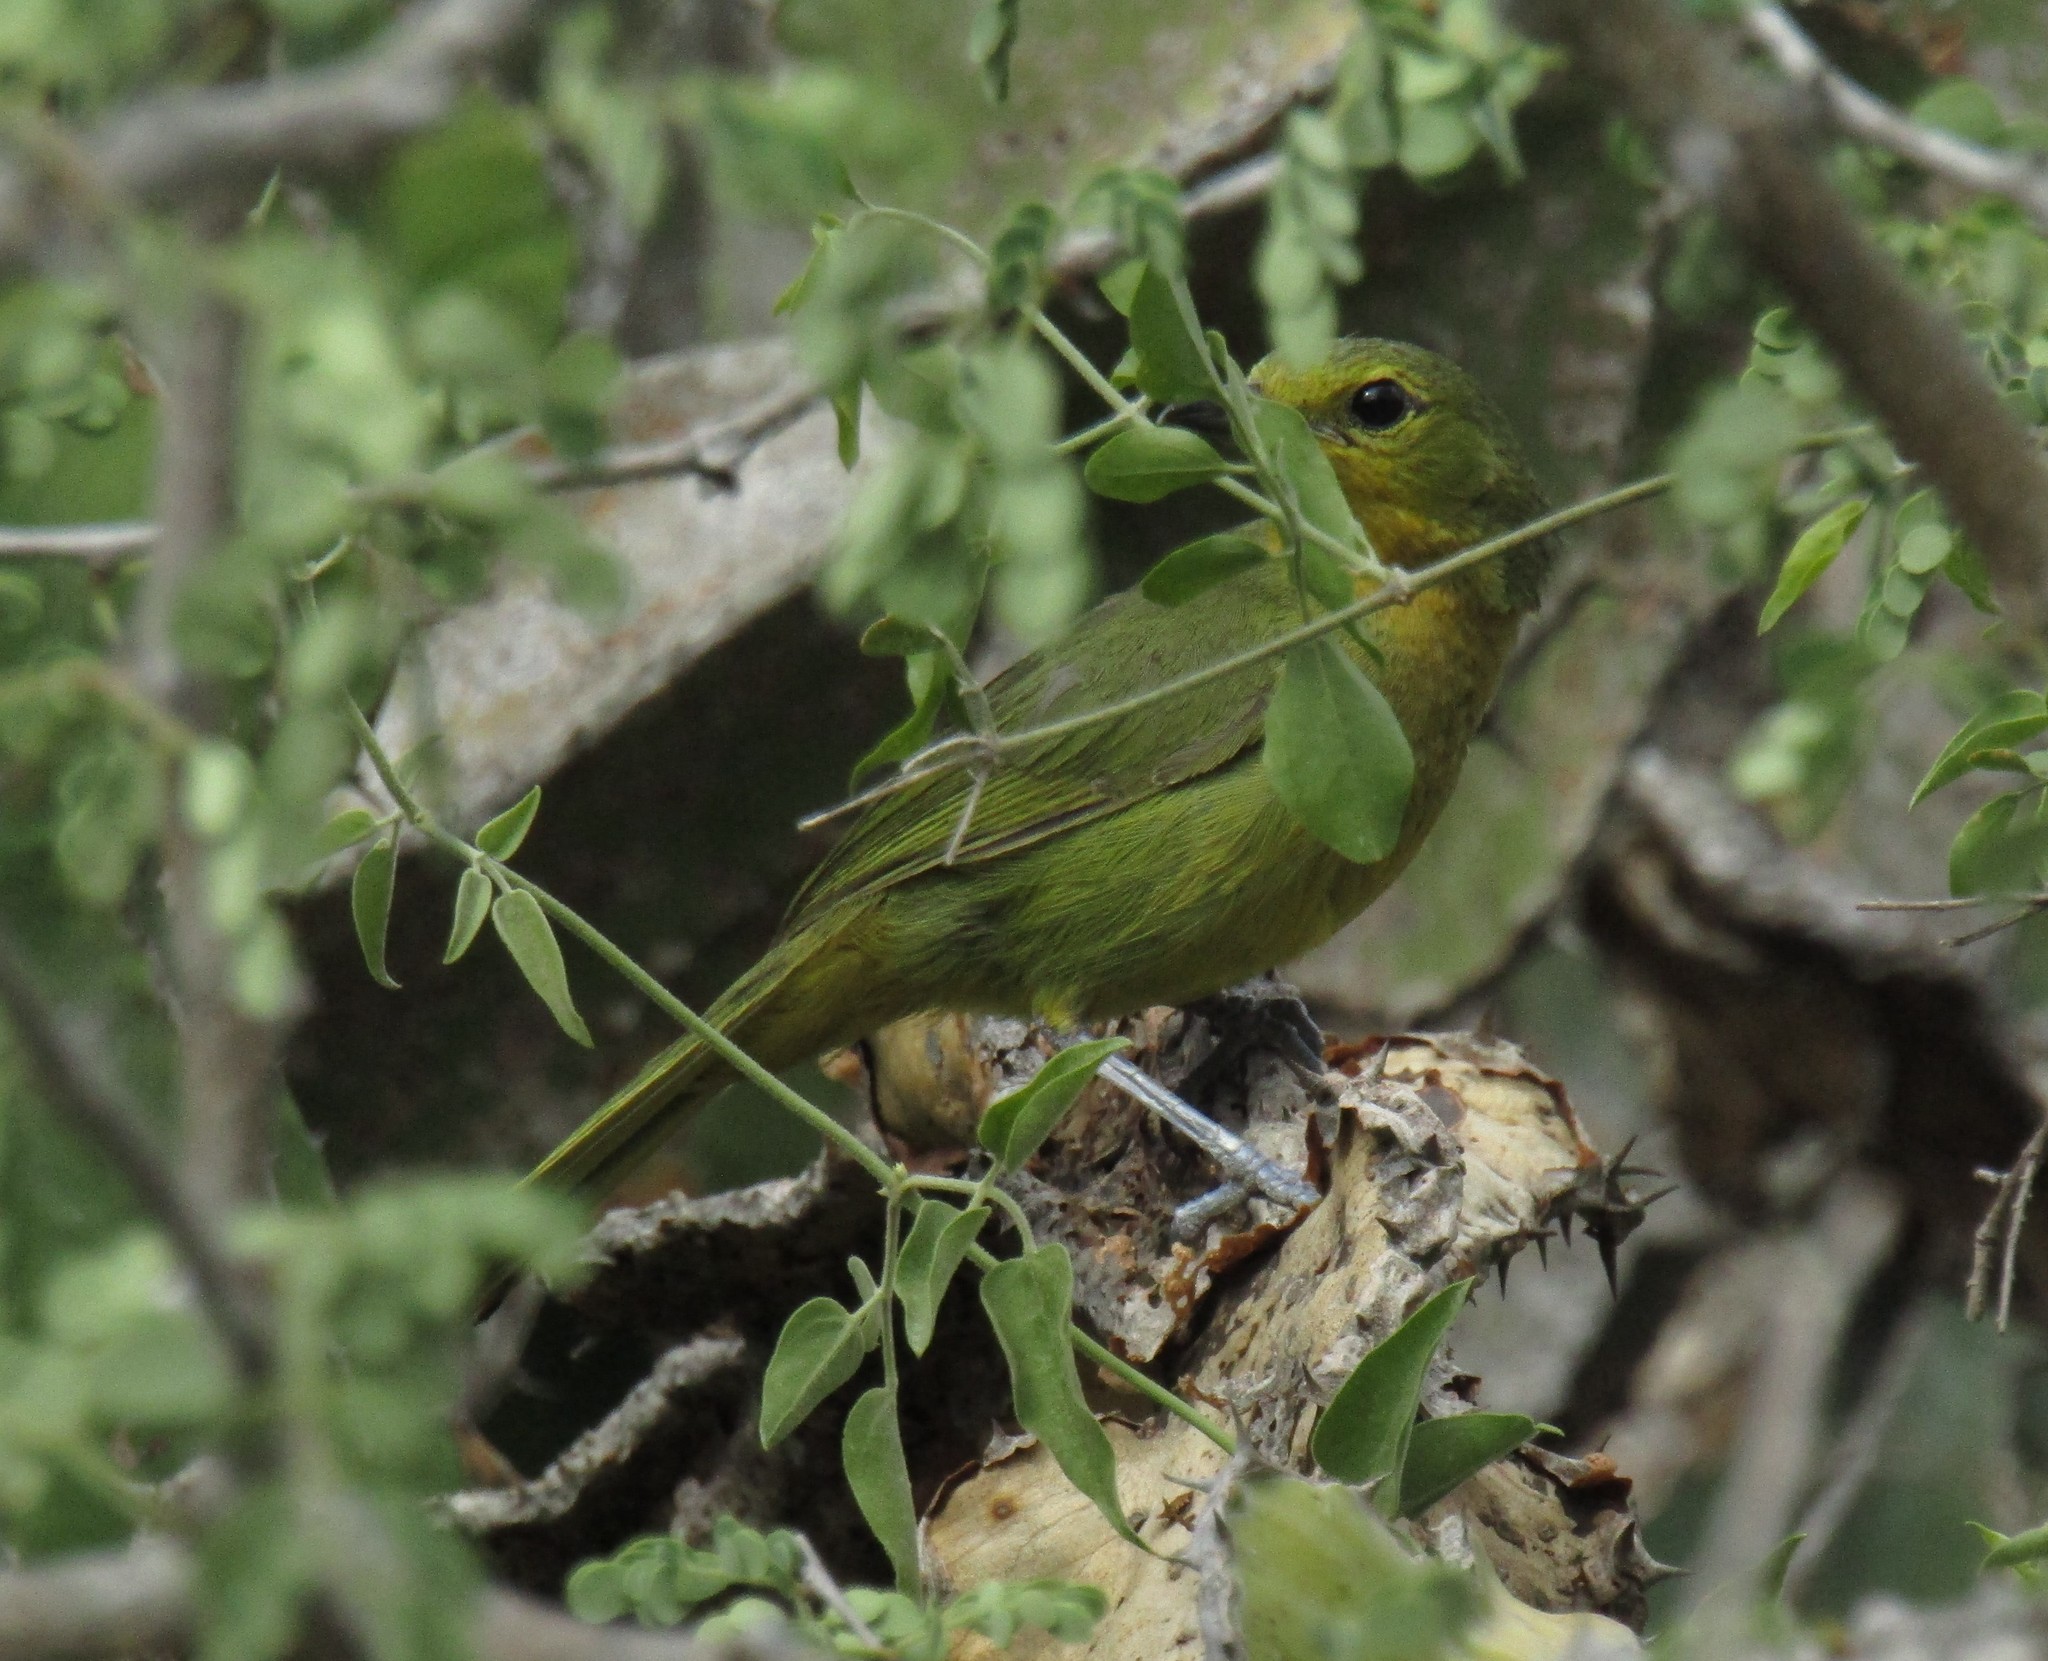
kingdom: Animalia
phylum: Chordata
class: Aves
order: Passeriformes
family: Malaconotidae
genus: Telophorus
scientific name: Telophorus viridis
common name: Gorgeous bushshrike
